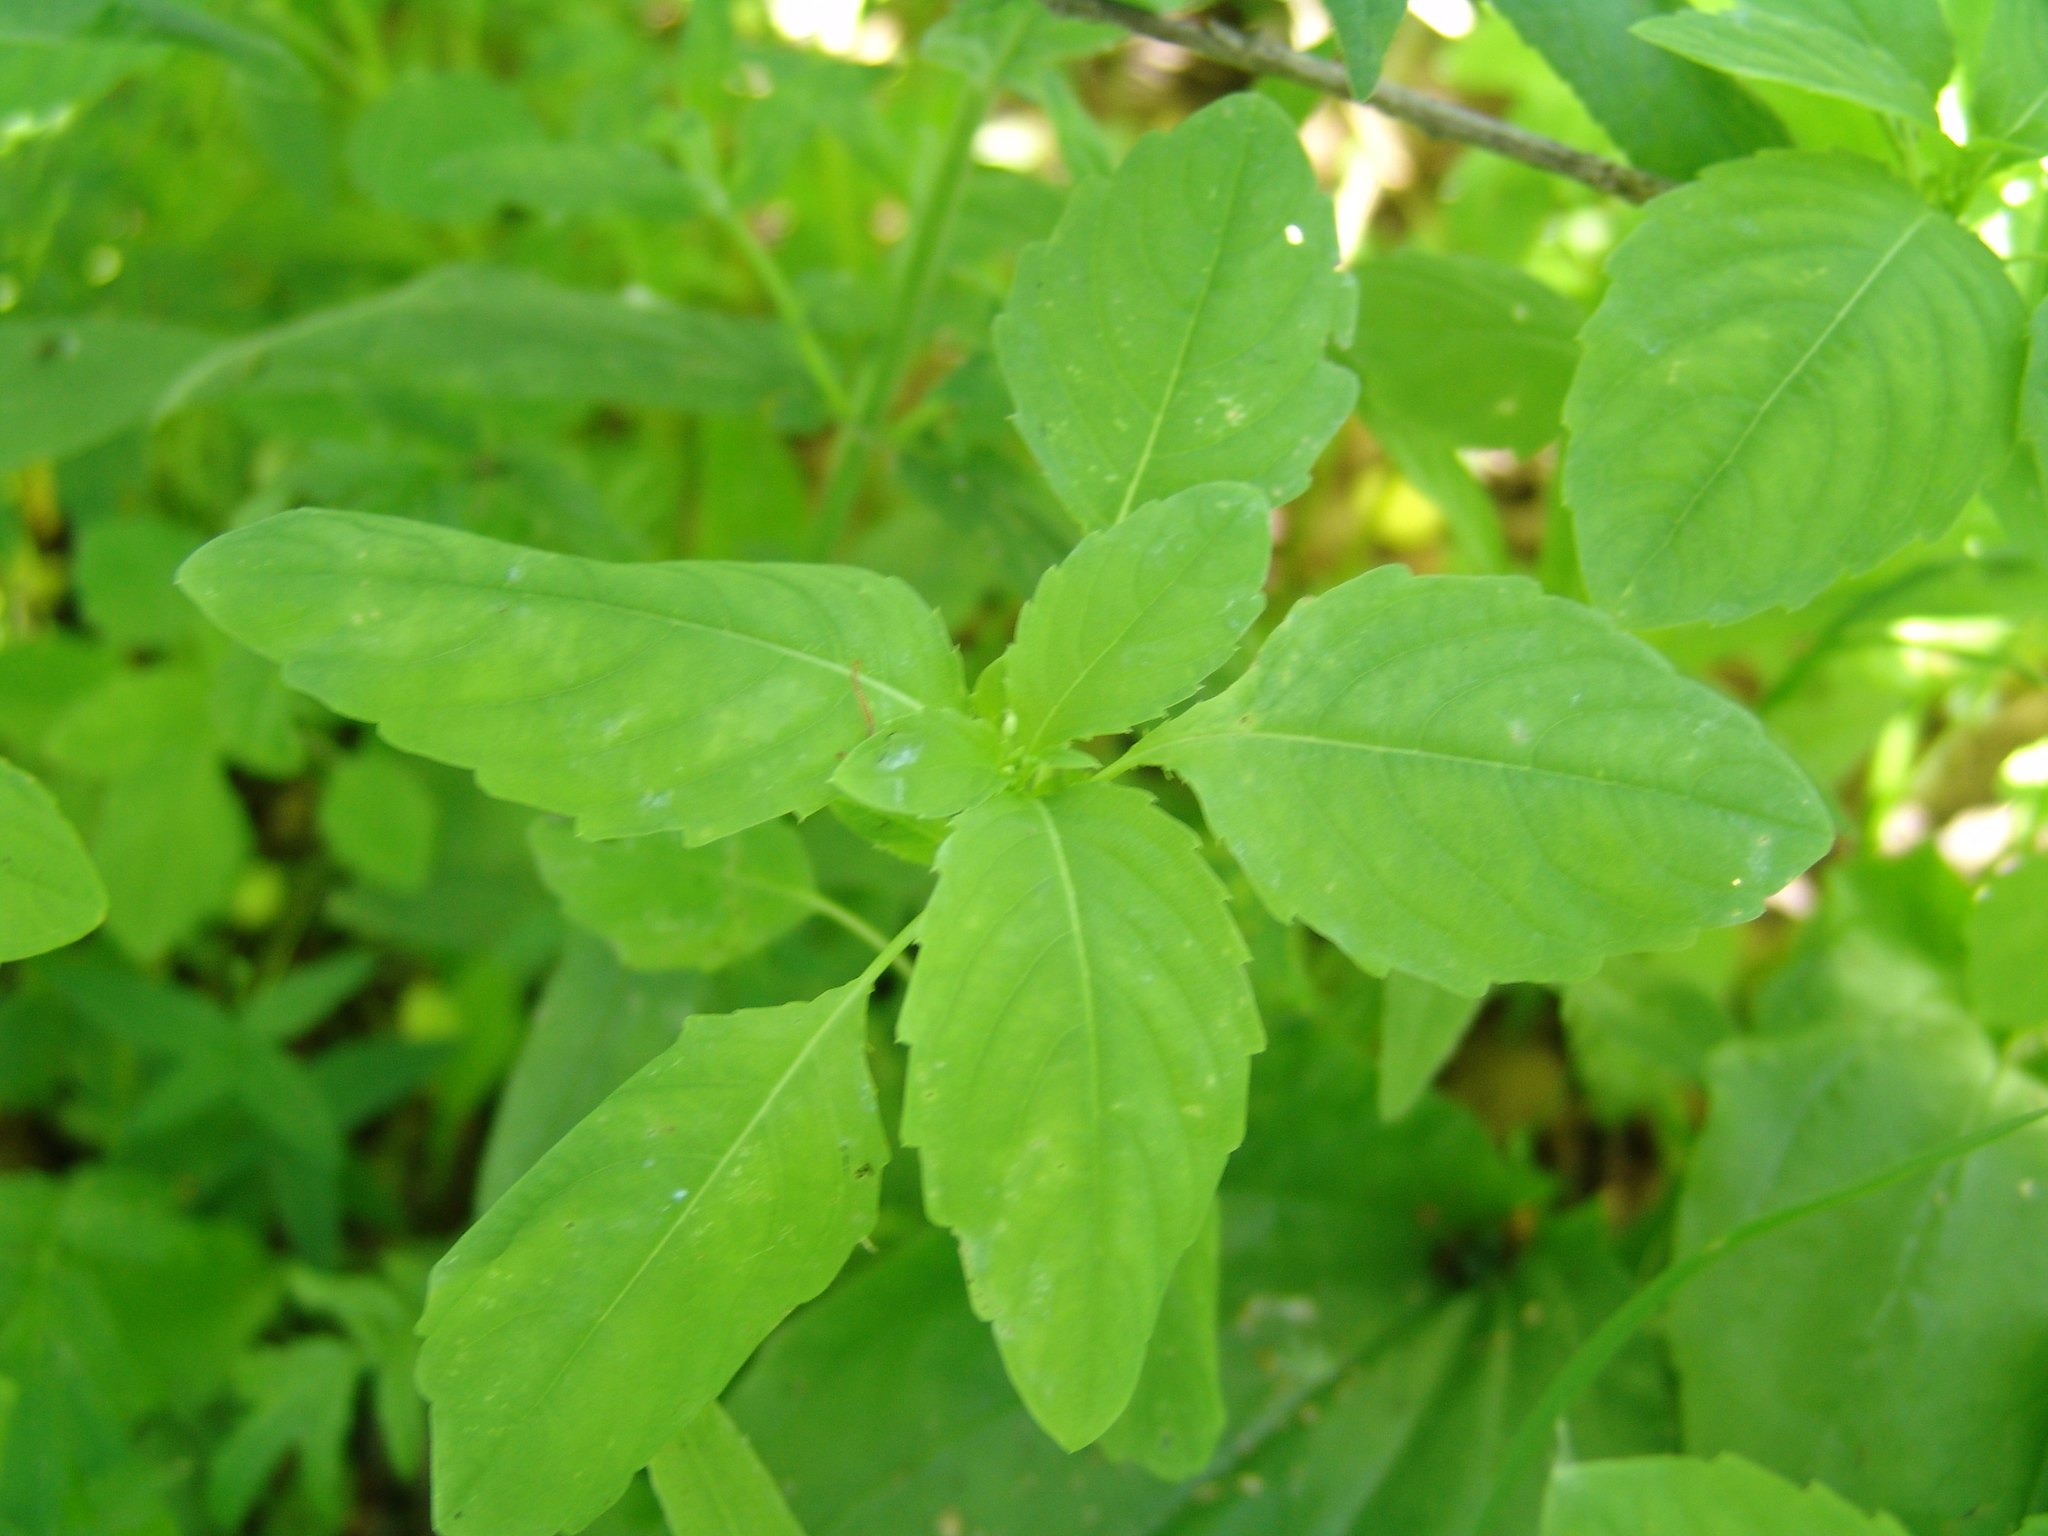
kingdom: Plantae
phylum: Tracheophyta
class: Magnoliopsida
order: Ericales
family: Balsaminaceae
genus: Impatiens
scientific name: Impatiens noli-tangere
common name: Touch-me-not balsam
